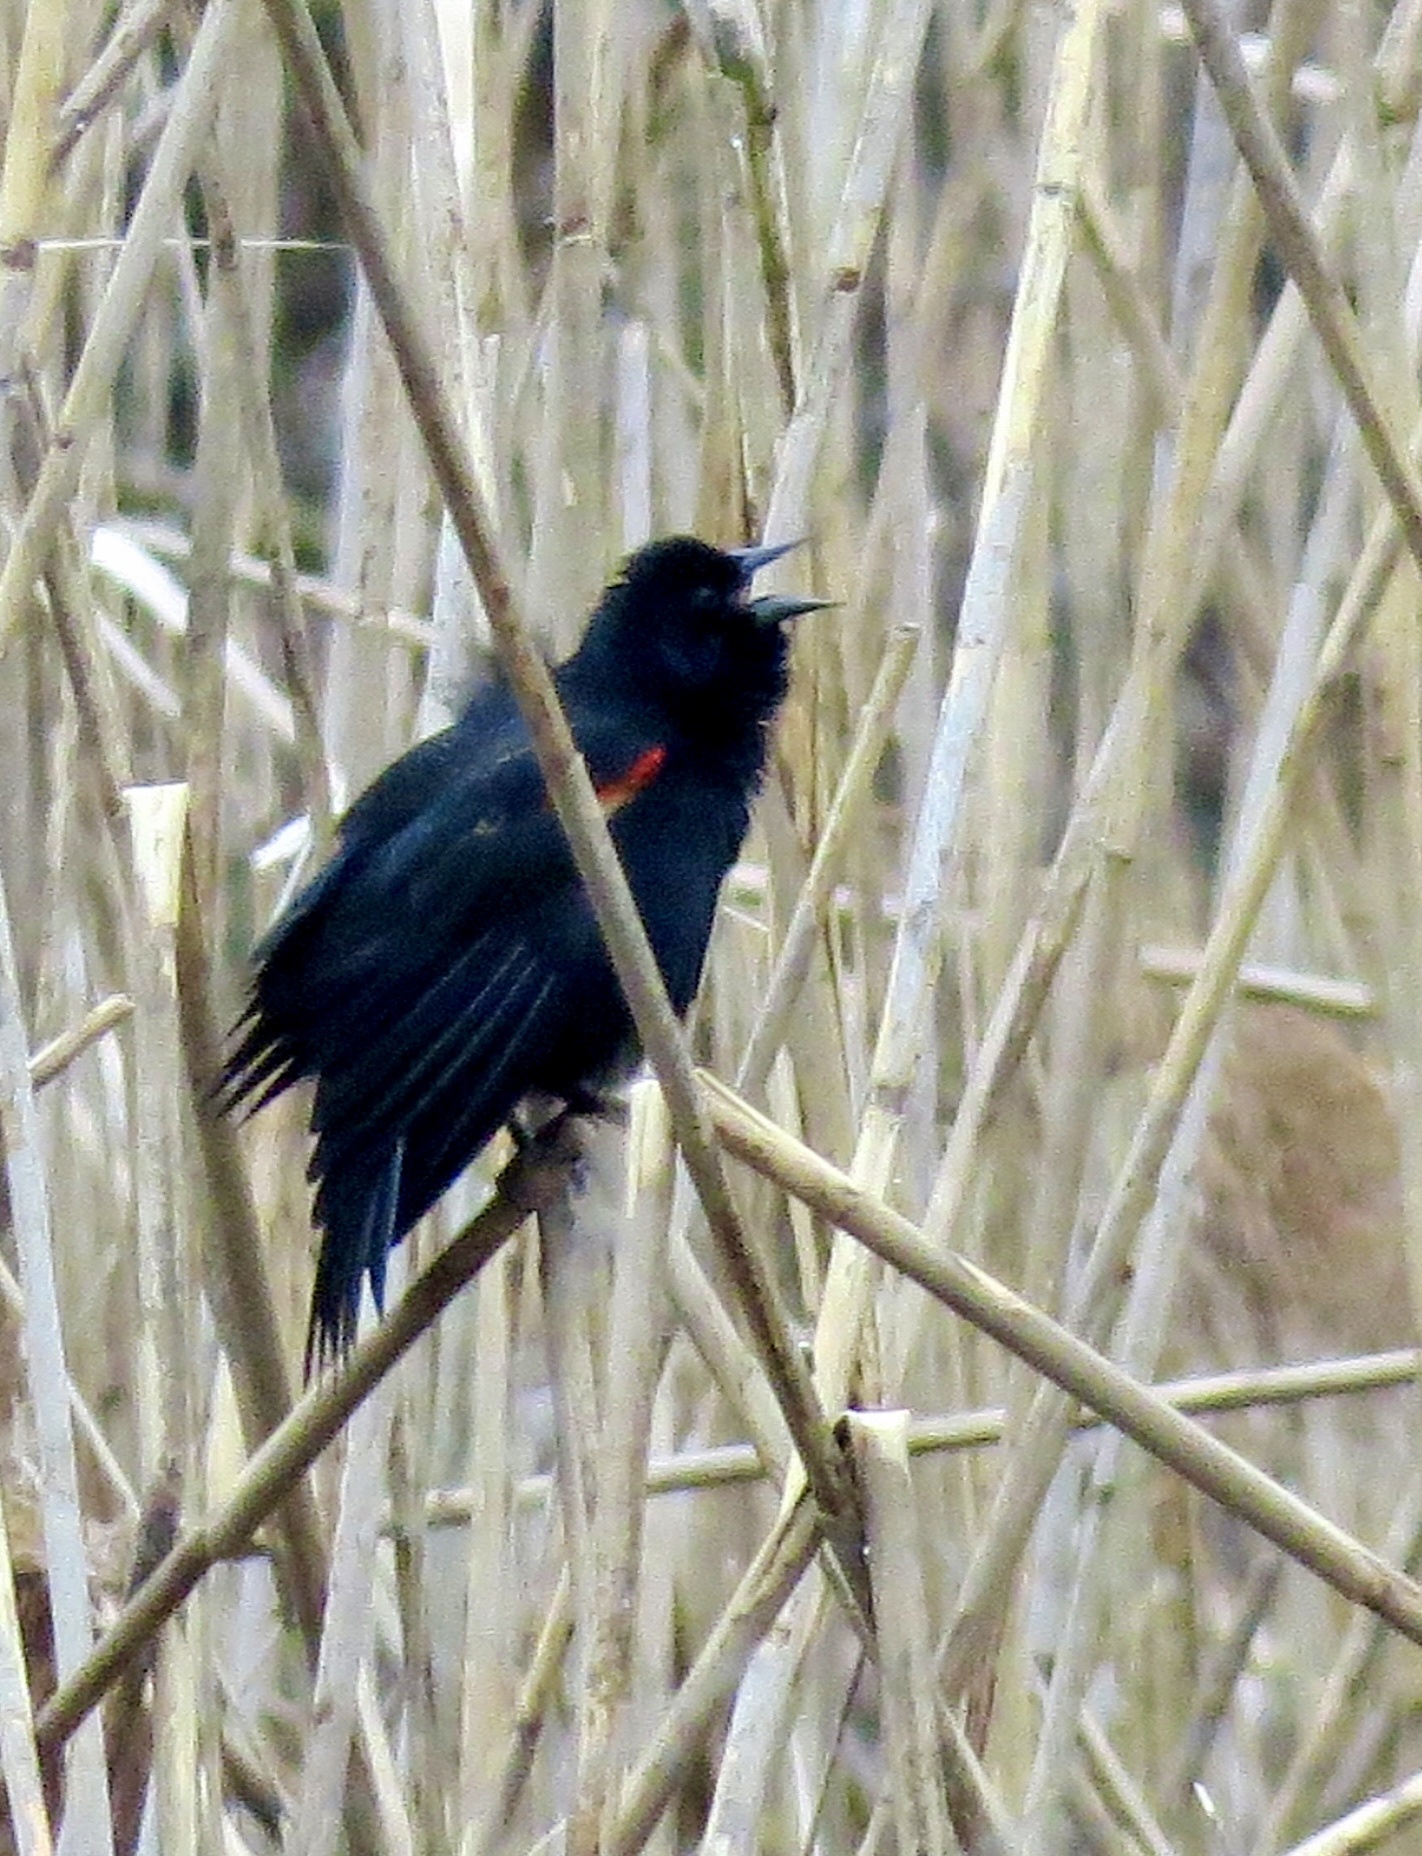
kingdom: Animalia
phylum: Chordata
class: Aves
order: Passeriformes
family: Icteridae
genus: Agelaius
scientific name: Agelaius phoeniceus
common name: Red-winged blackbird
